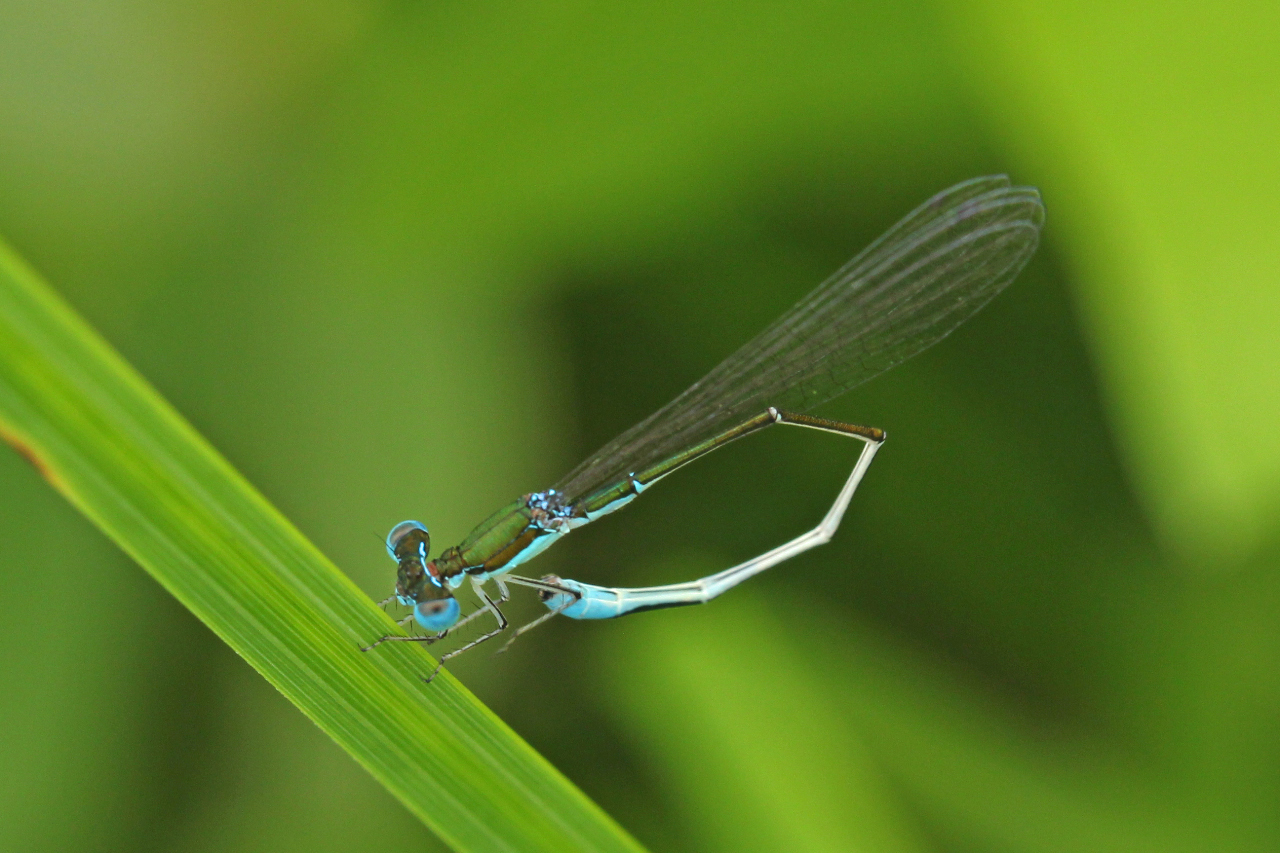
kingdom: Animalia
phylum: Arthropoda
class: Insecta
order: Odonata
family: Coenagrionidae
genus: Nehalennia
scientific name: Nehalennia gracilis
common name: Sphagnum sprite
